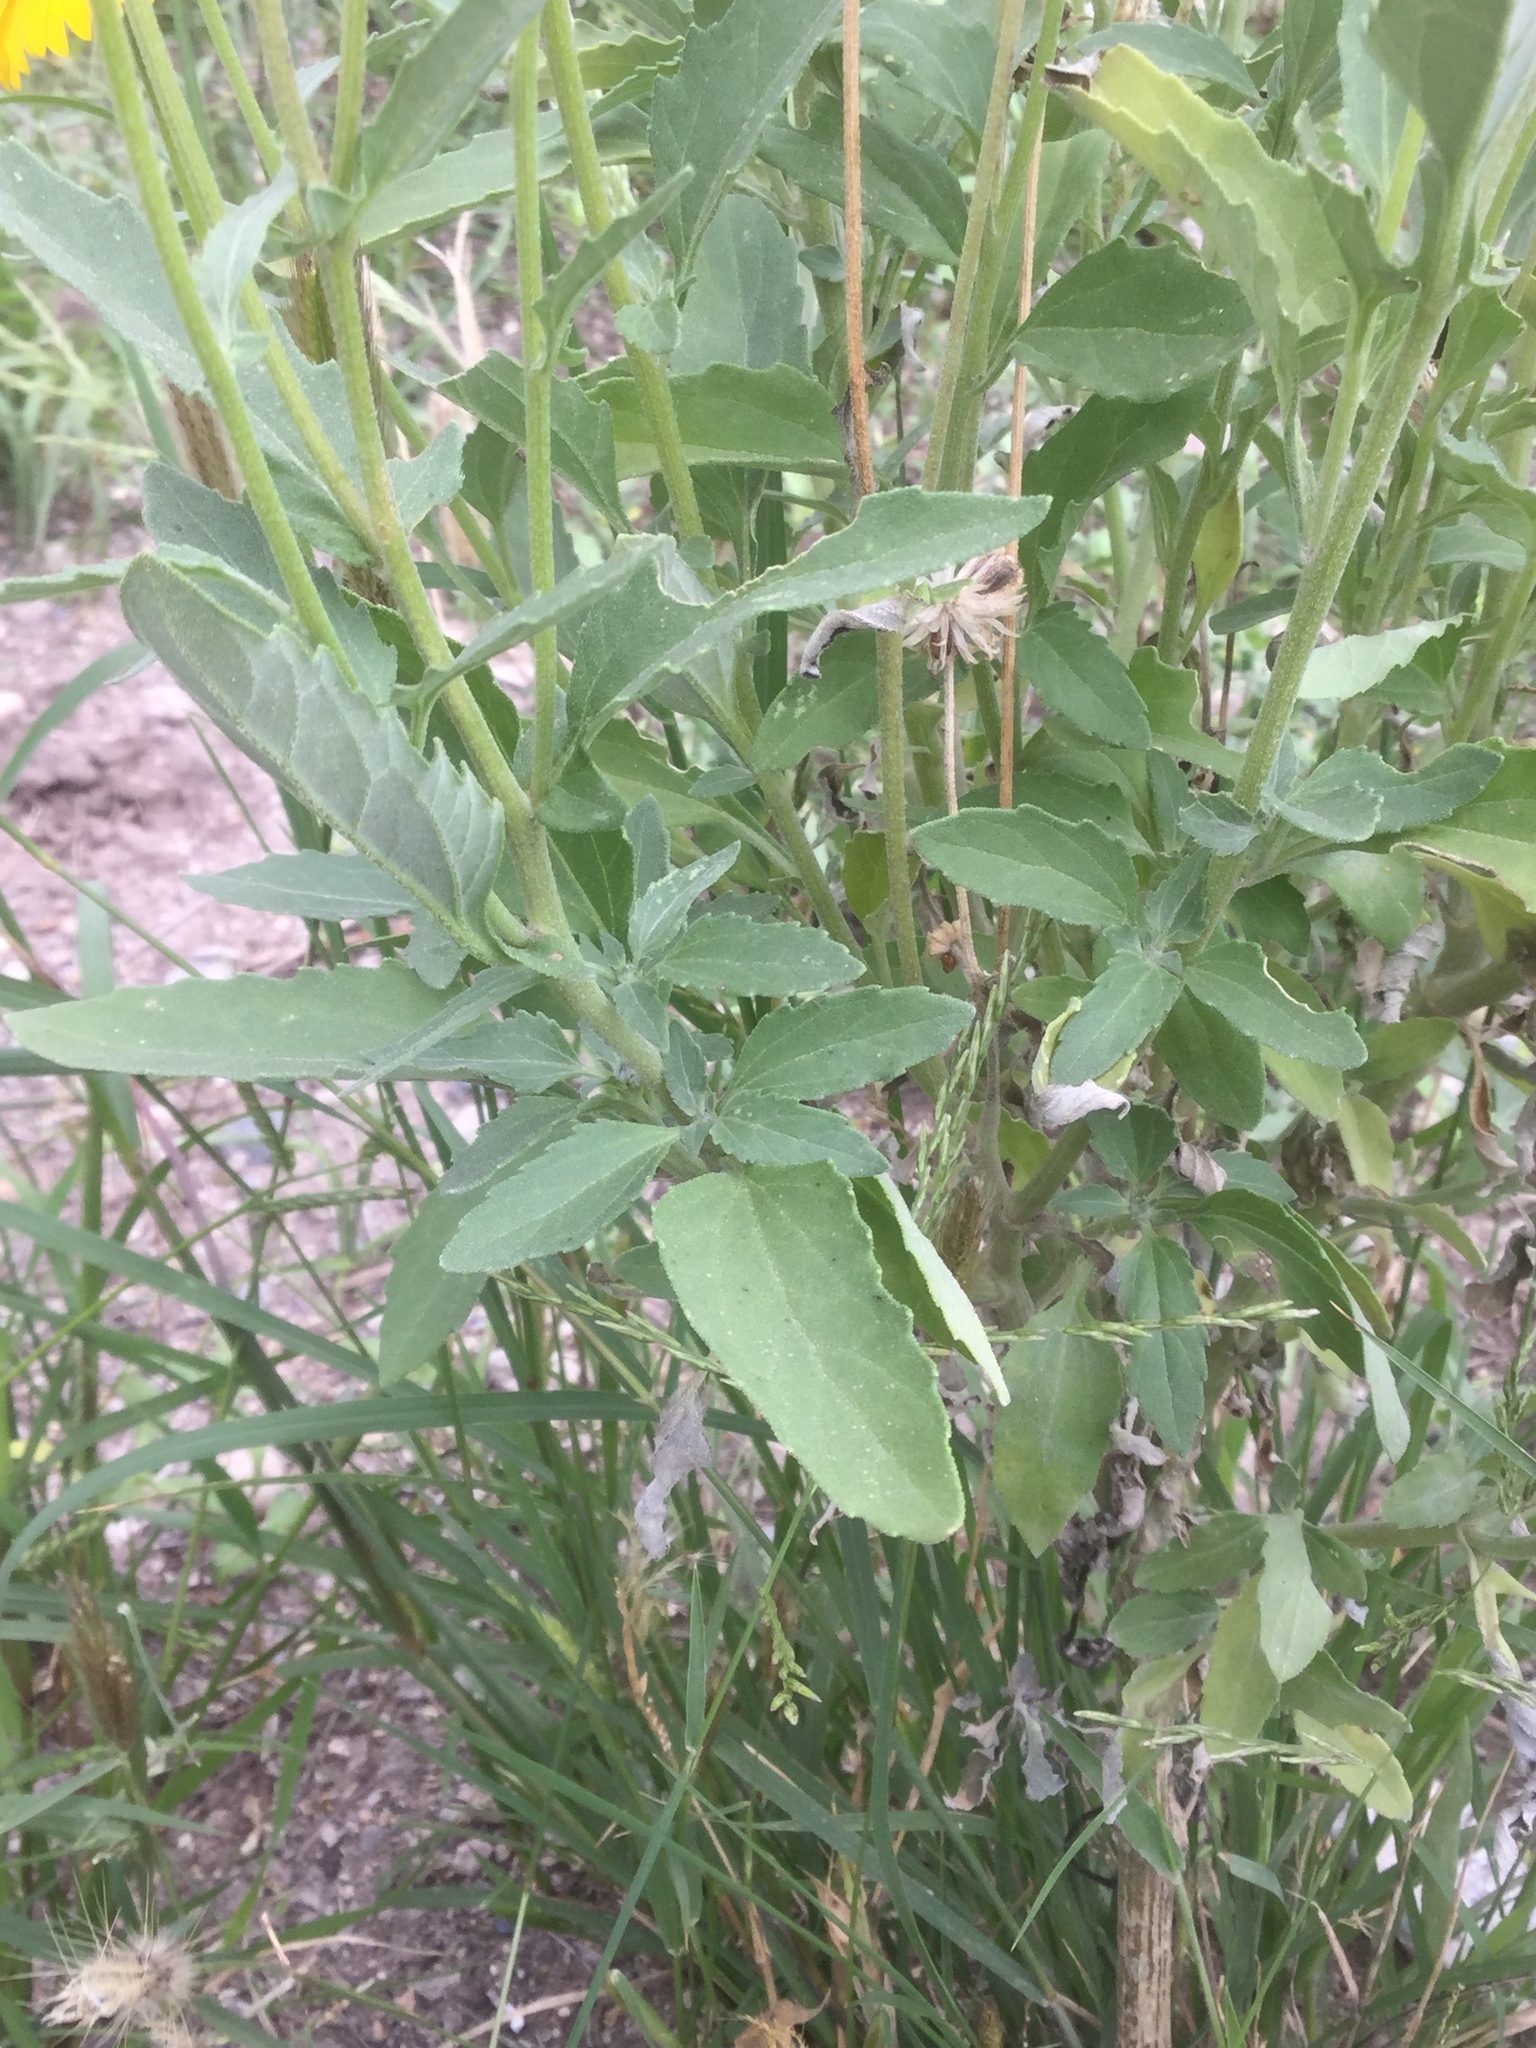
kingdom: Plantae
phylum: Tracheophyta
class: Magnoliopsida
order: Asterales
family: Asteraceae
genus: Verbesina
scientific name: Verbesina encelioides
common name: Golden crownbeard
